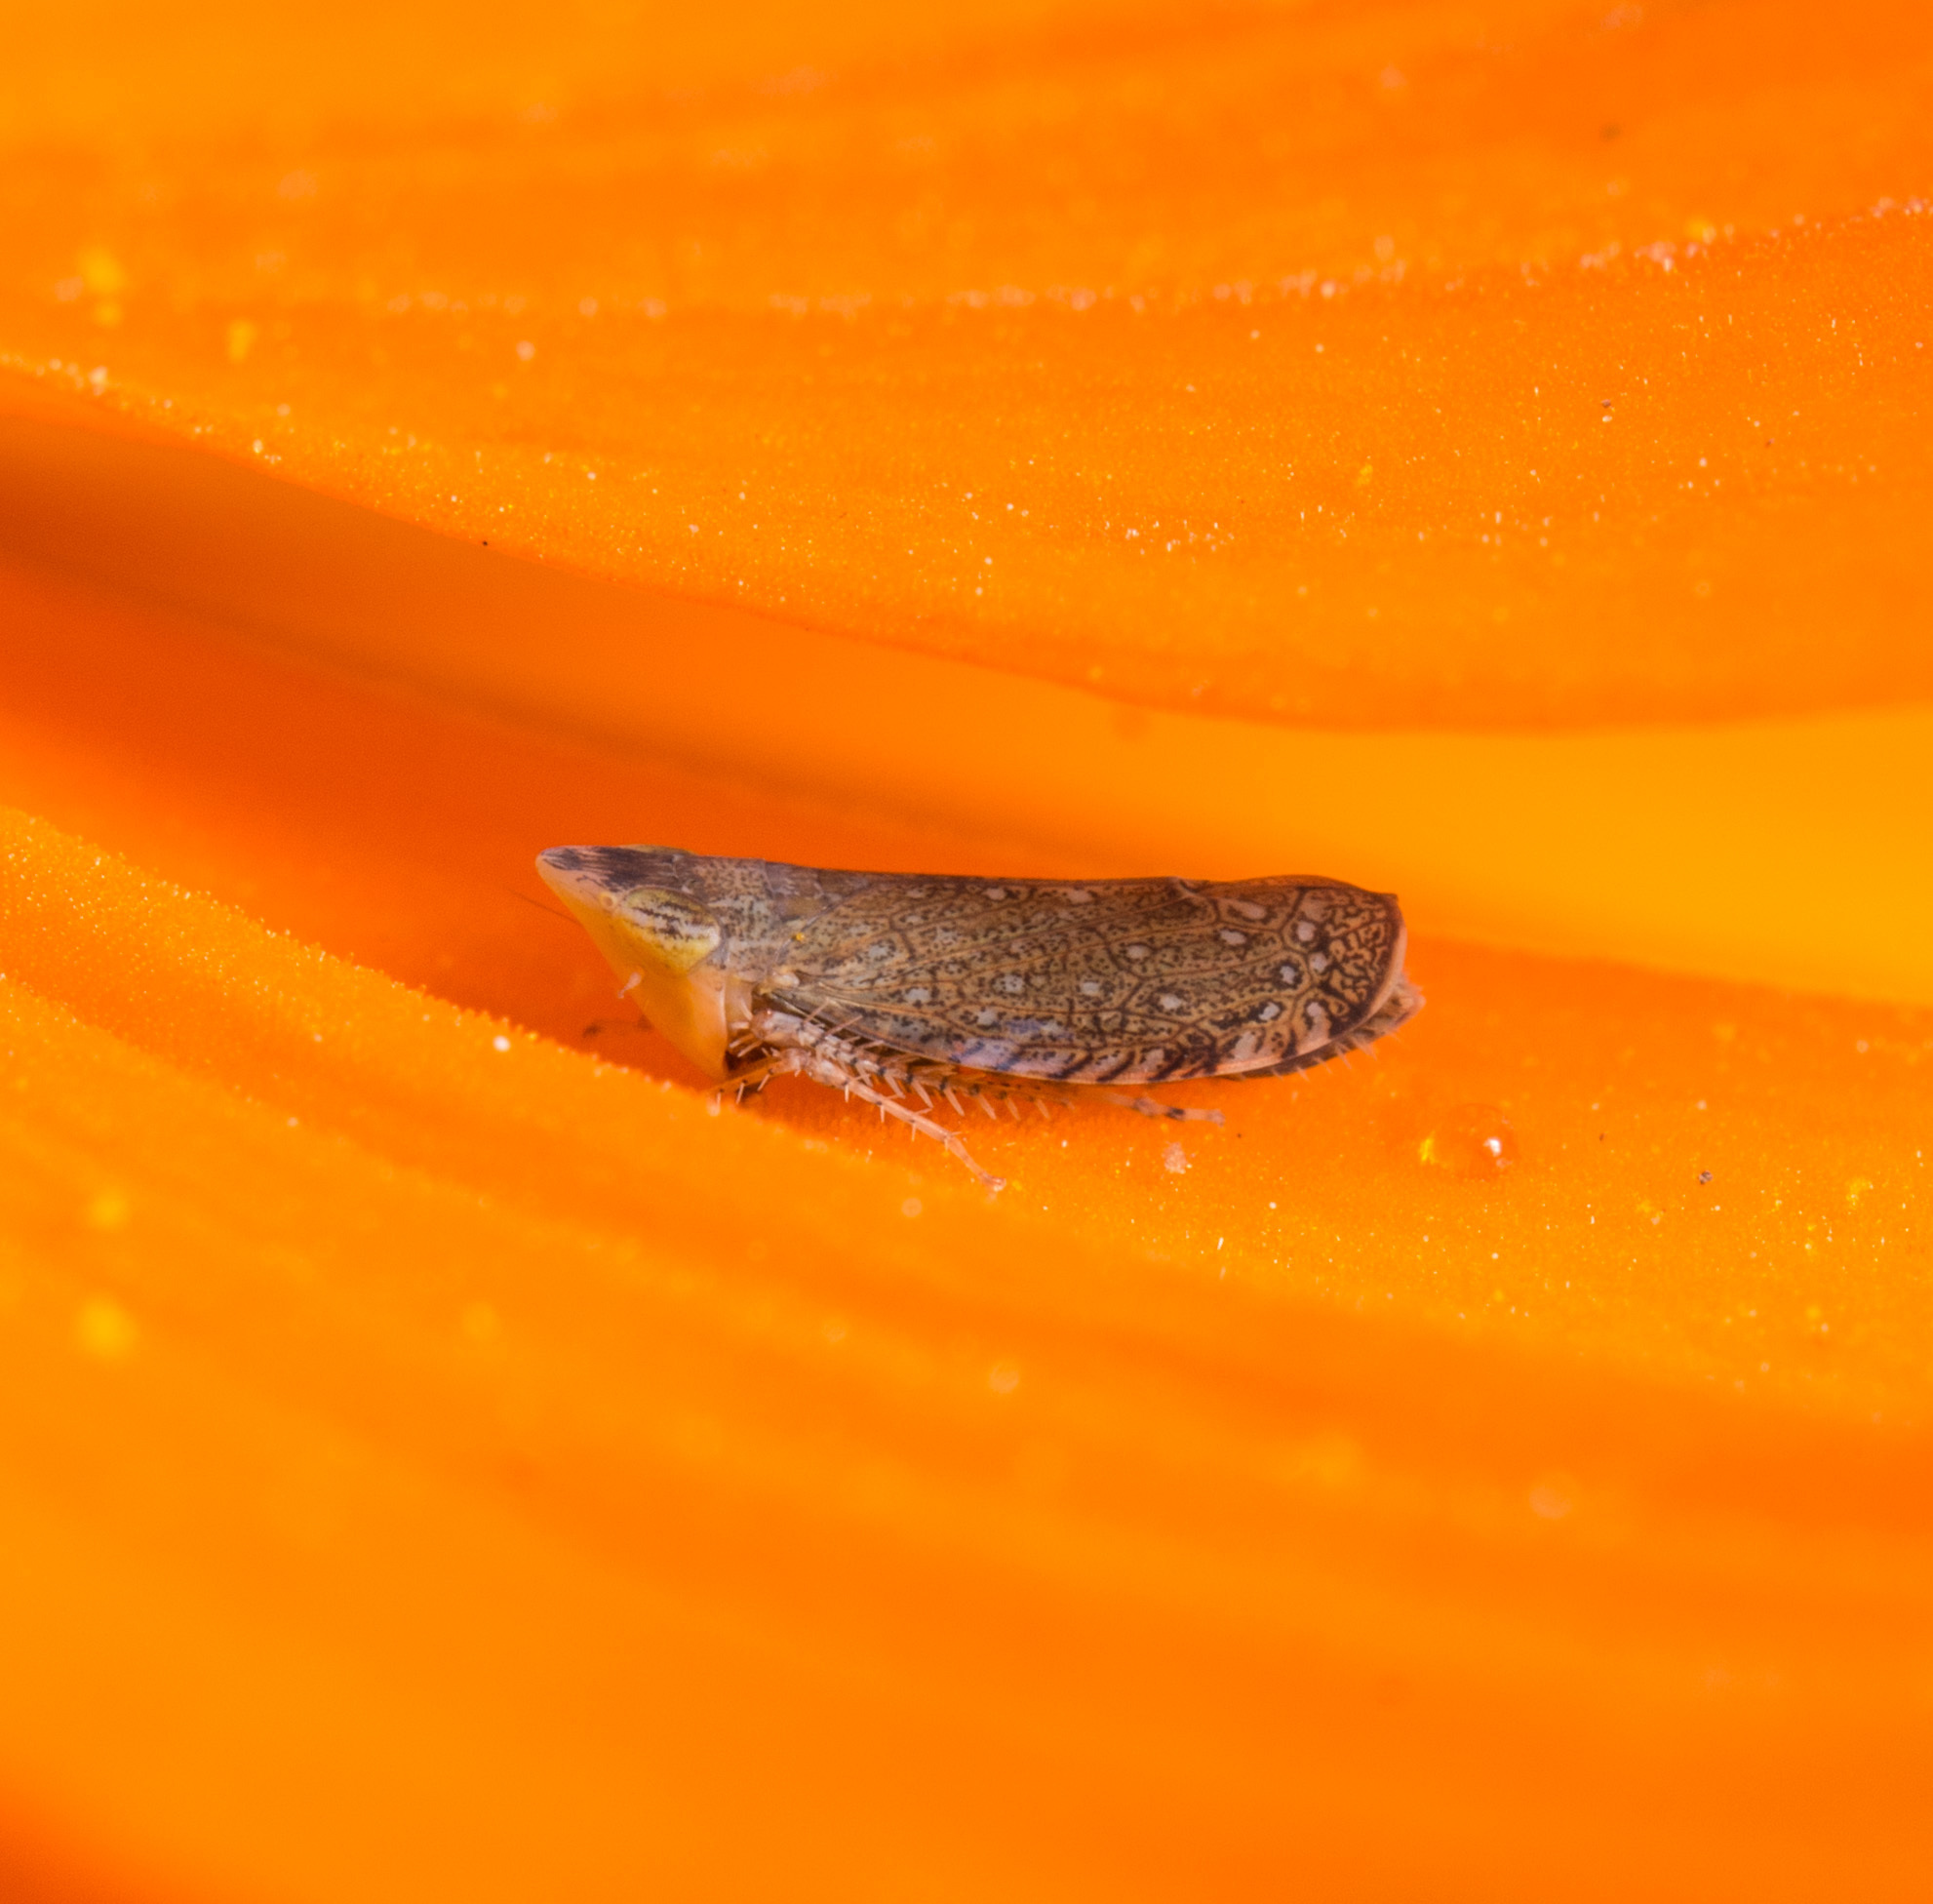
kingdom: Animalia
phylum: Arthropoda
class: Insecta
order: Hemiptera
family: Cicadellidae
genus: Scaphytopius
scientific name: Scaphytopius
